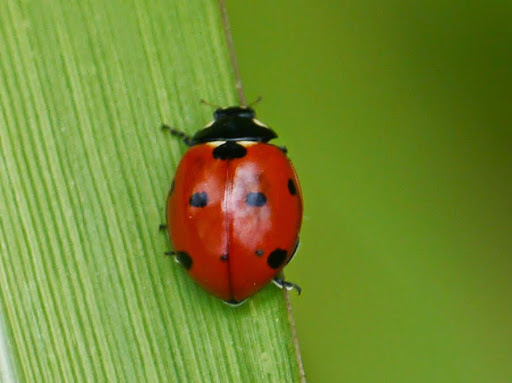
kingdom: Animalia
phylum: Arthropoda
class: Insecta
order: Coleoptera
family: Coccinellidae
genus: Coccinella
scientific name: Coccinella septempunctata
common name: Sevenspotted lady beetle
